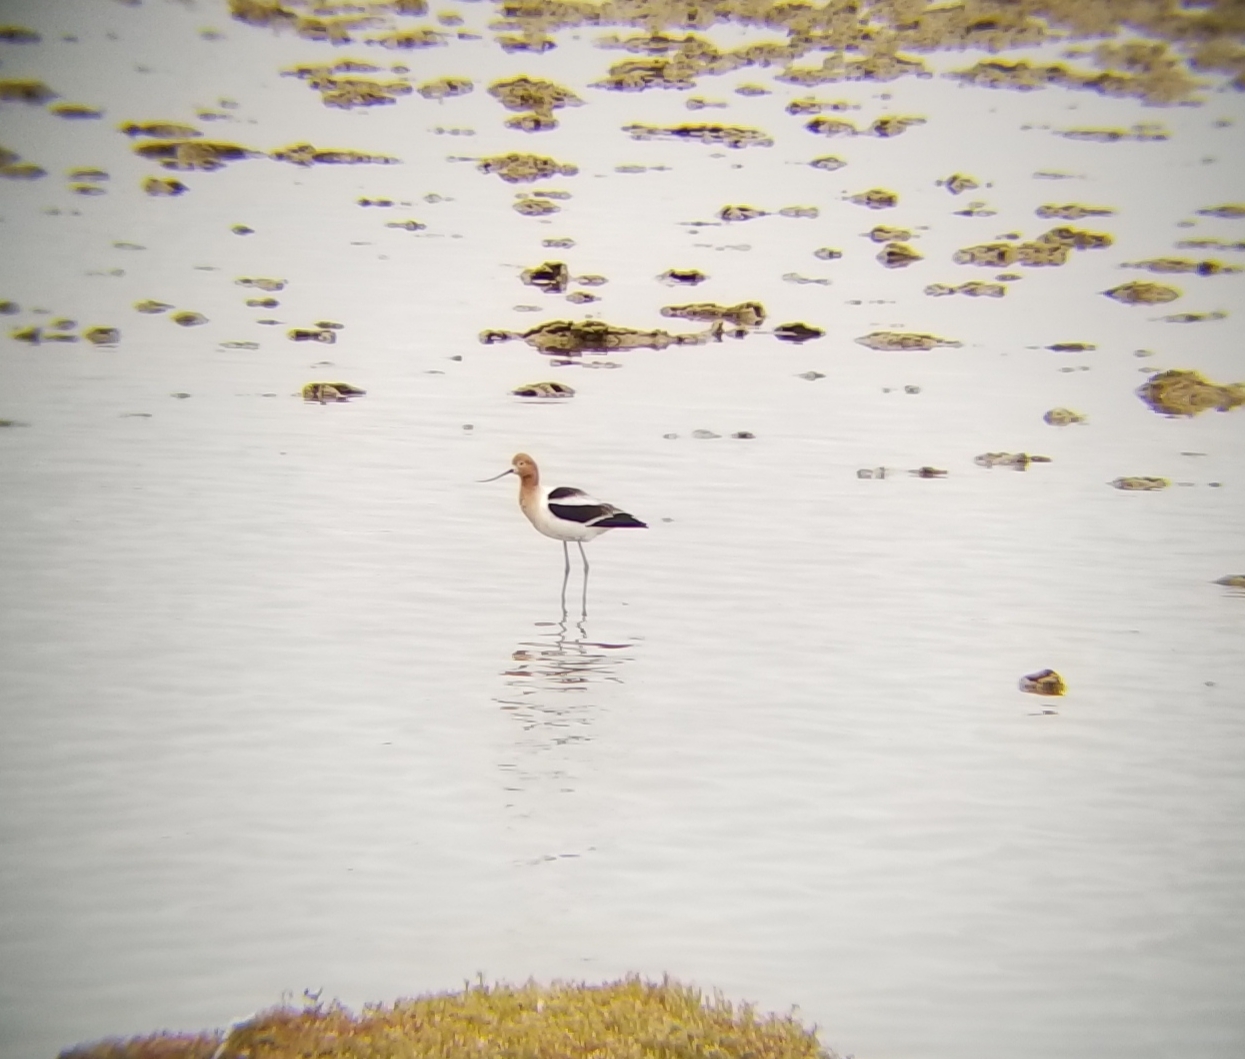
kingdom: Animalia
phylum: Chordata
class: Aves
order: Charadriiformes
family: Recurvirostridae
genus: Recurvirostra
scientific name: Recurvirostra americana
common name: American avocet
